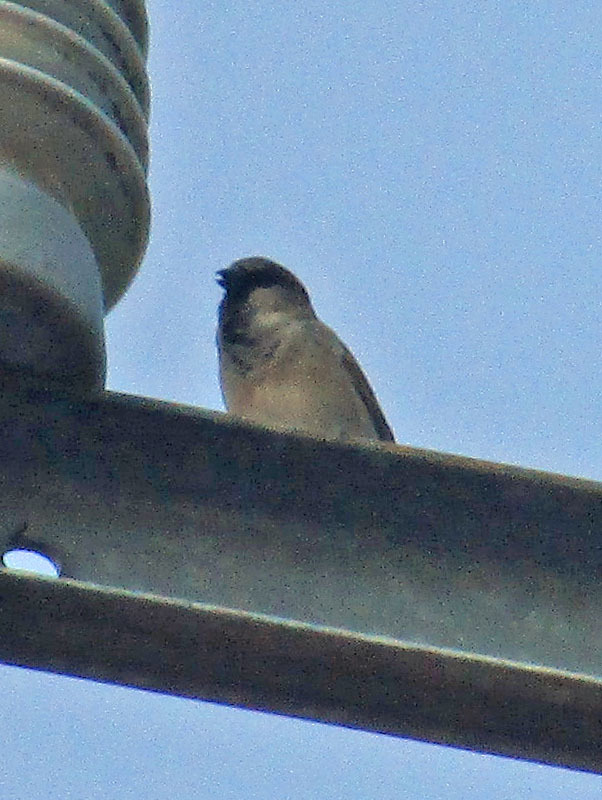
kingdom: Animalia
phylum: Chordata
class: Aves
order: Passeriformes
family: Passeridae
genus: Passer
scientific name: Passer domesticus
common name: House sparrow
